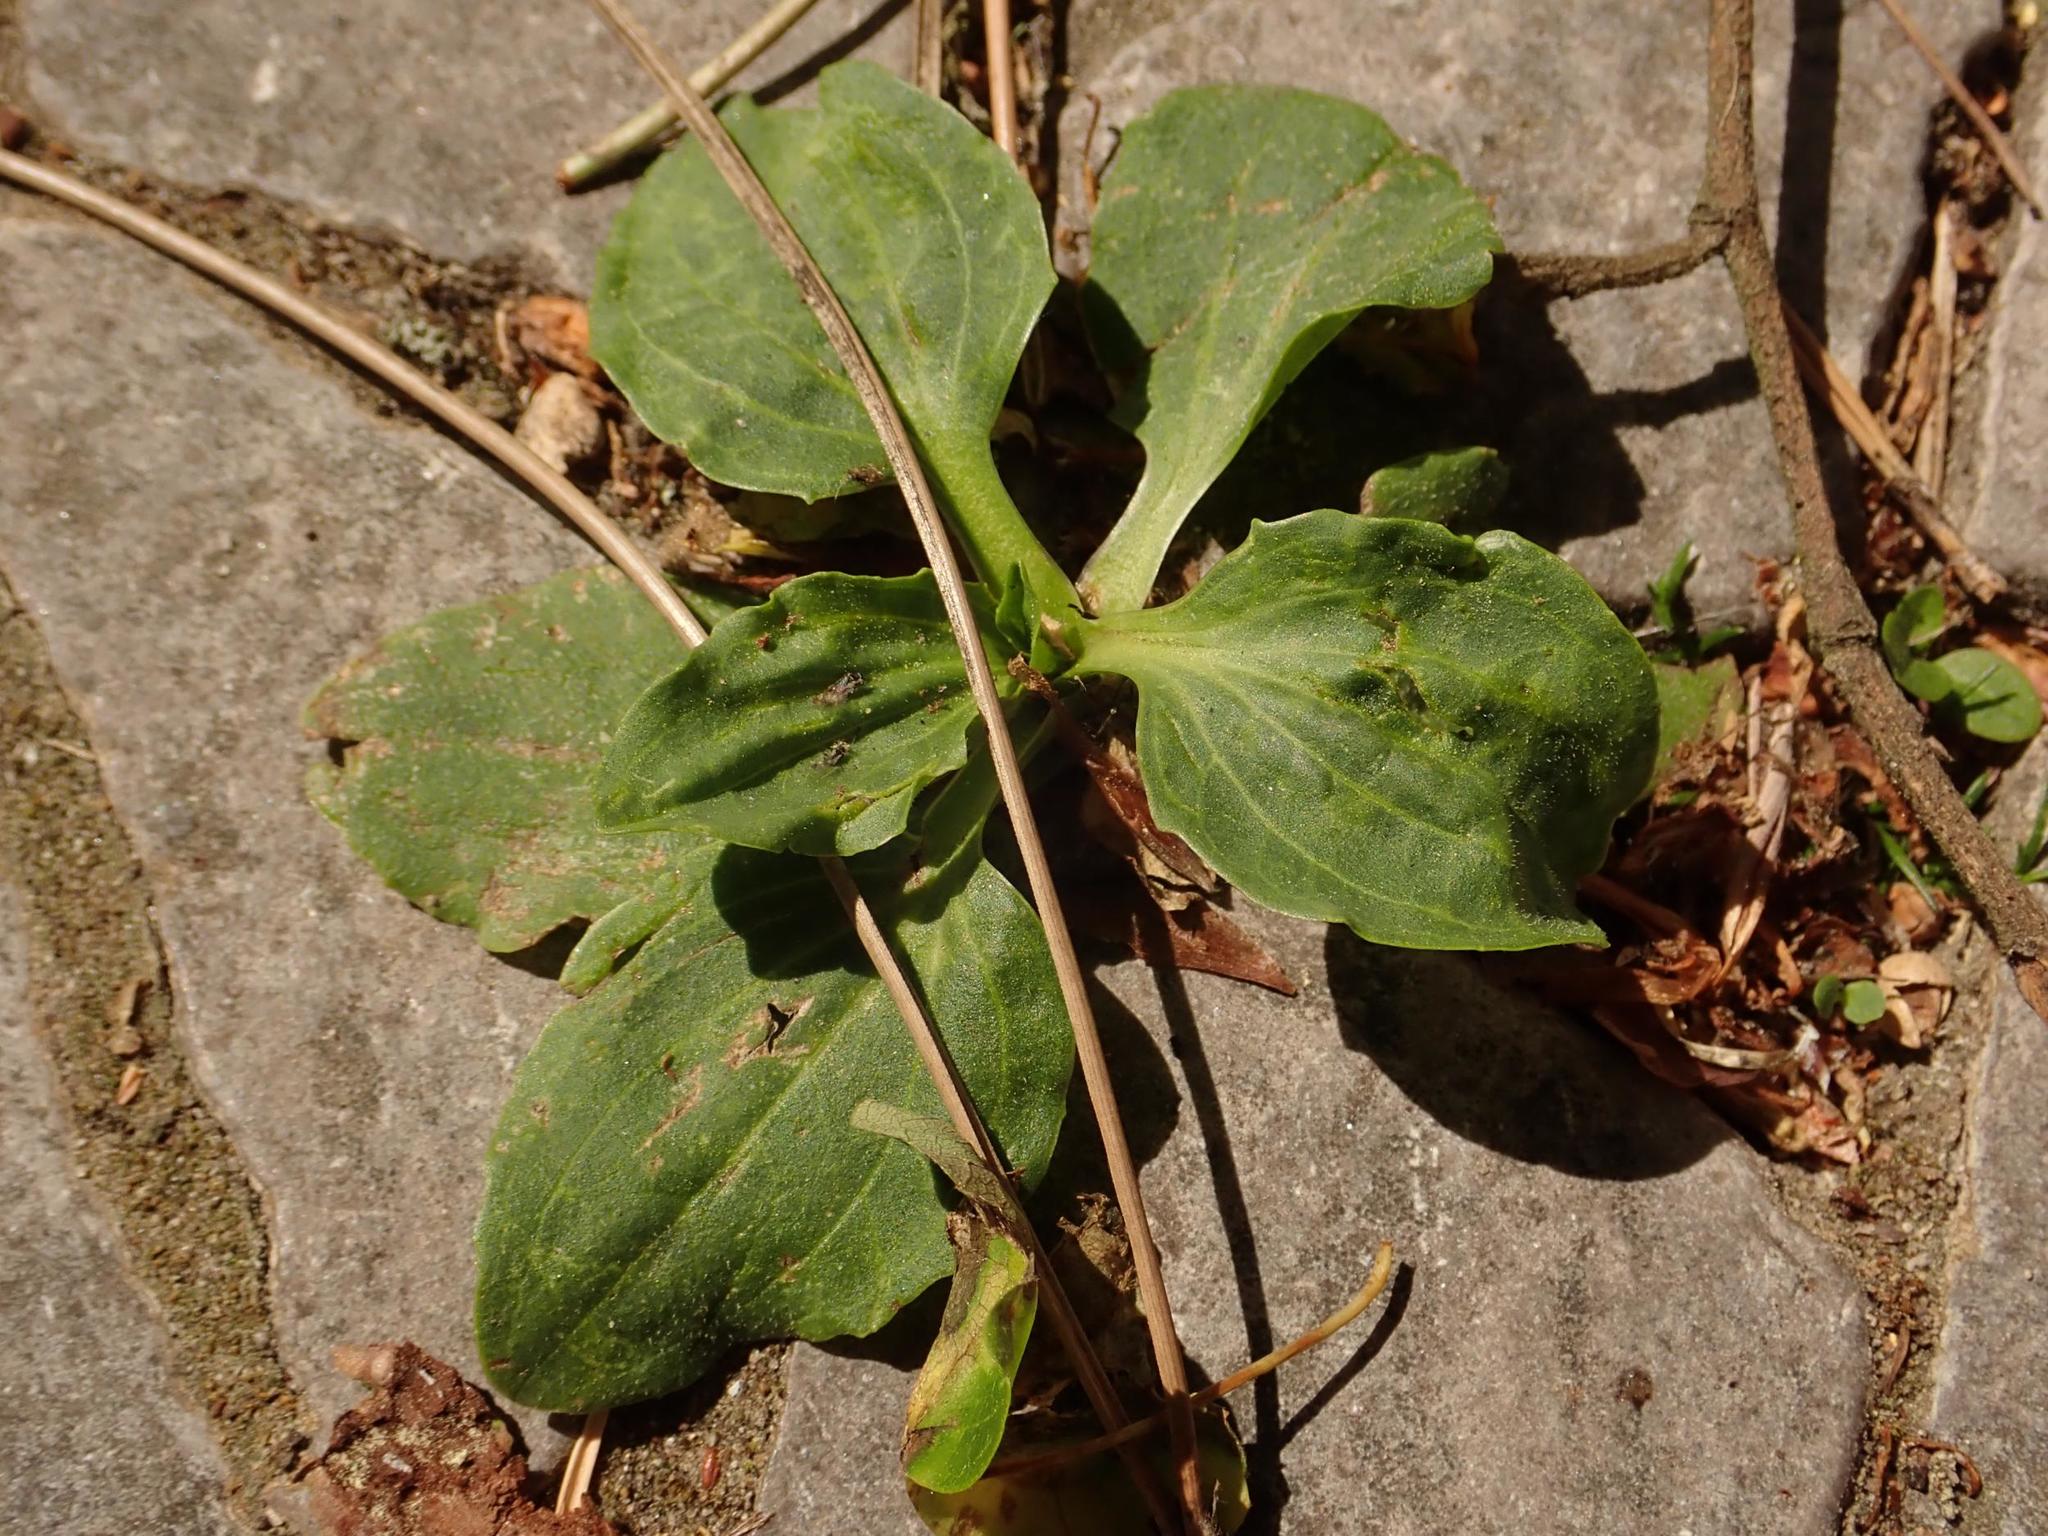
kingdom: Plantae
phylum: Tracheophyta
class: Magnoliopsida
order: Lamiales
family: Plantaginaceae
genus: Plantago
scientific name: Plantago major
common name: Common plantain
